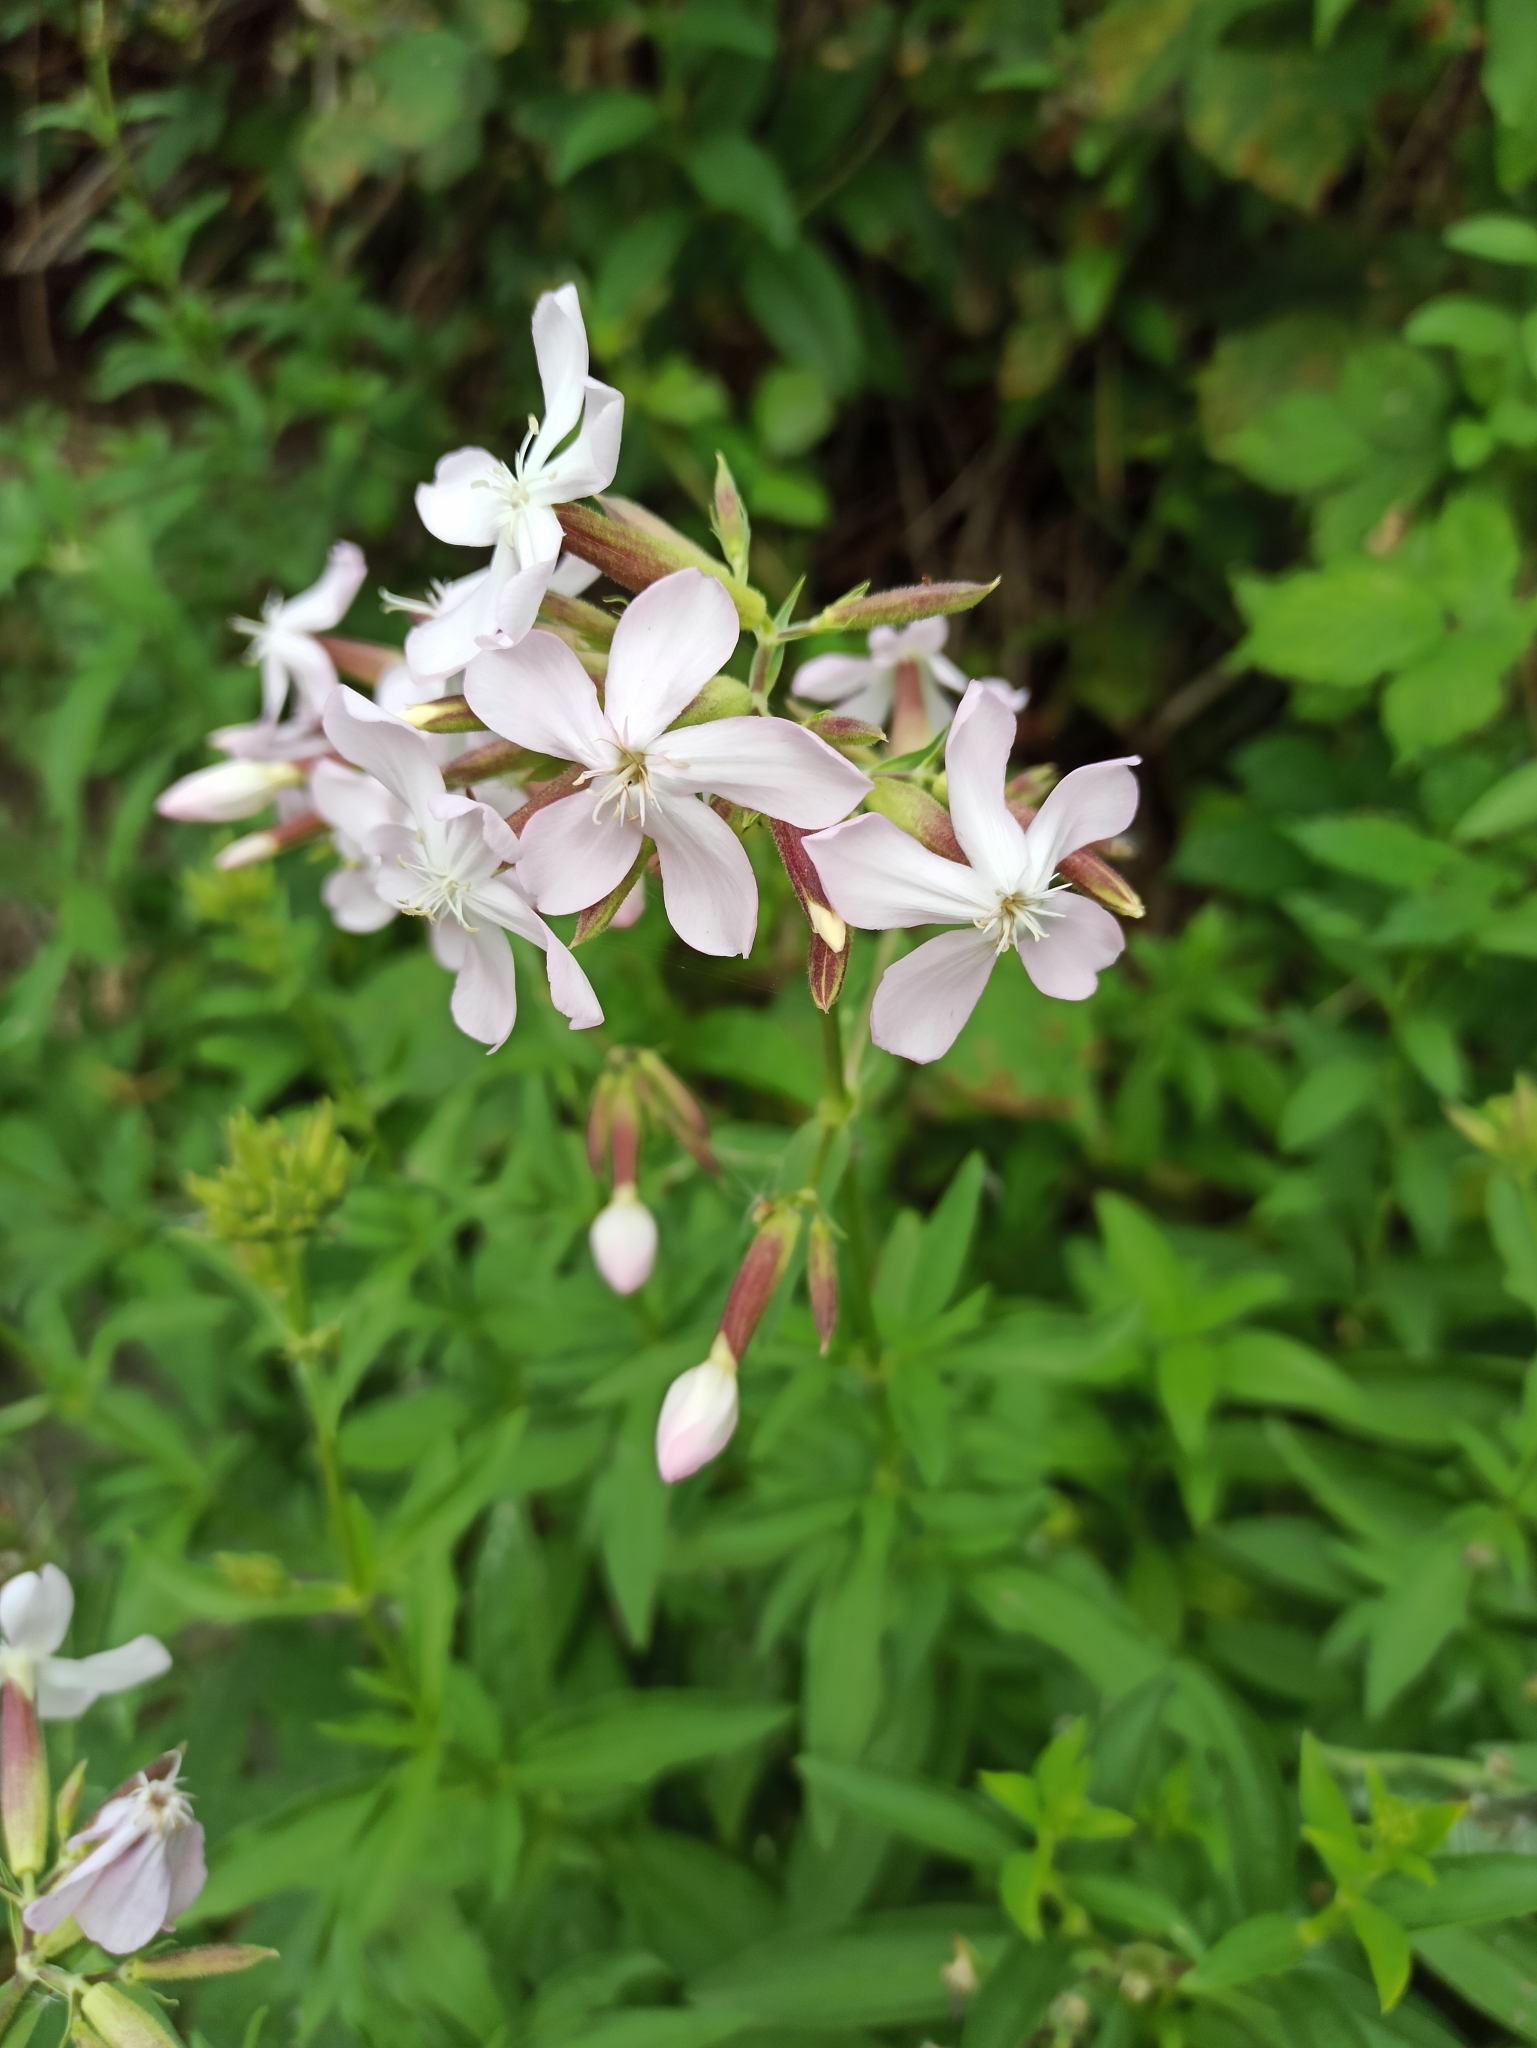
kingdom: Plantae
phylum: Tracheophyta
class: Magnoliopsida
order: Caryophyllales
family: Caryophyllaceae
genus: Saponaria
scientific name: Saponaria officinalis
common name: Soapwort
